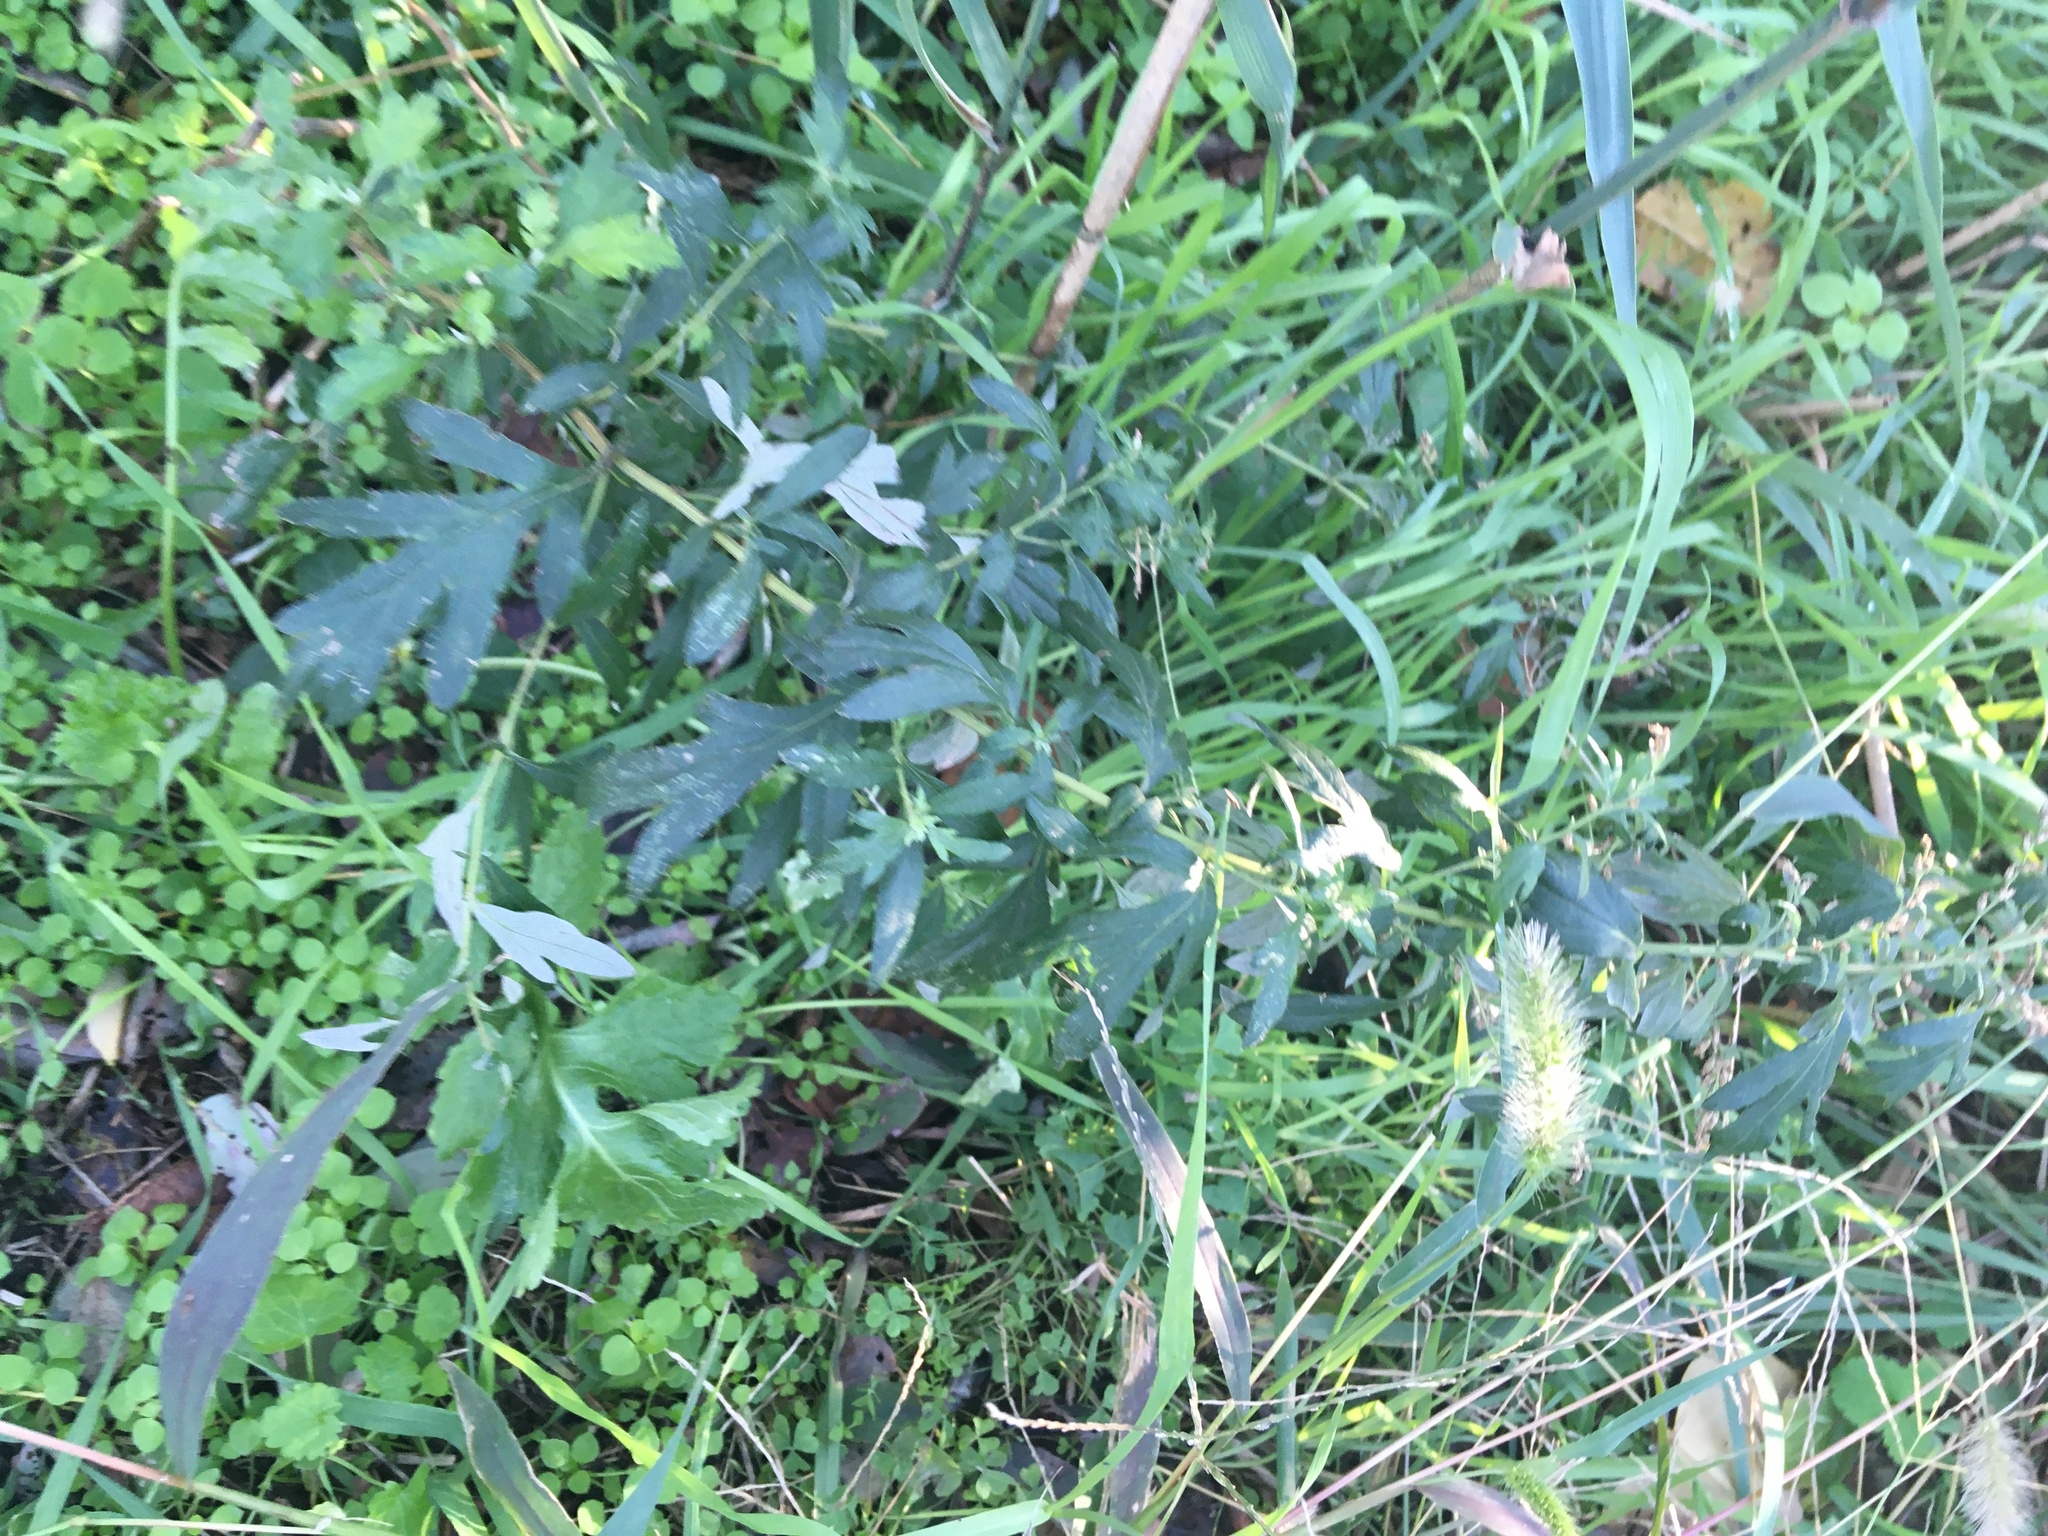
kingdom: Plantae
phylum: Tracheophyta
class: Magnoliopsida
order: Asterales
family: Asteraceae
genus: Artemisia
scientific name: Artemisia vulgaris
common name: Mugwort
